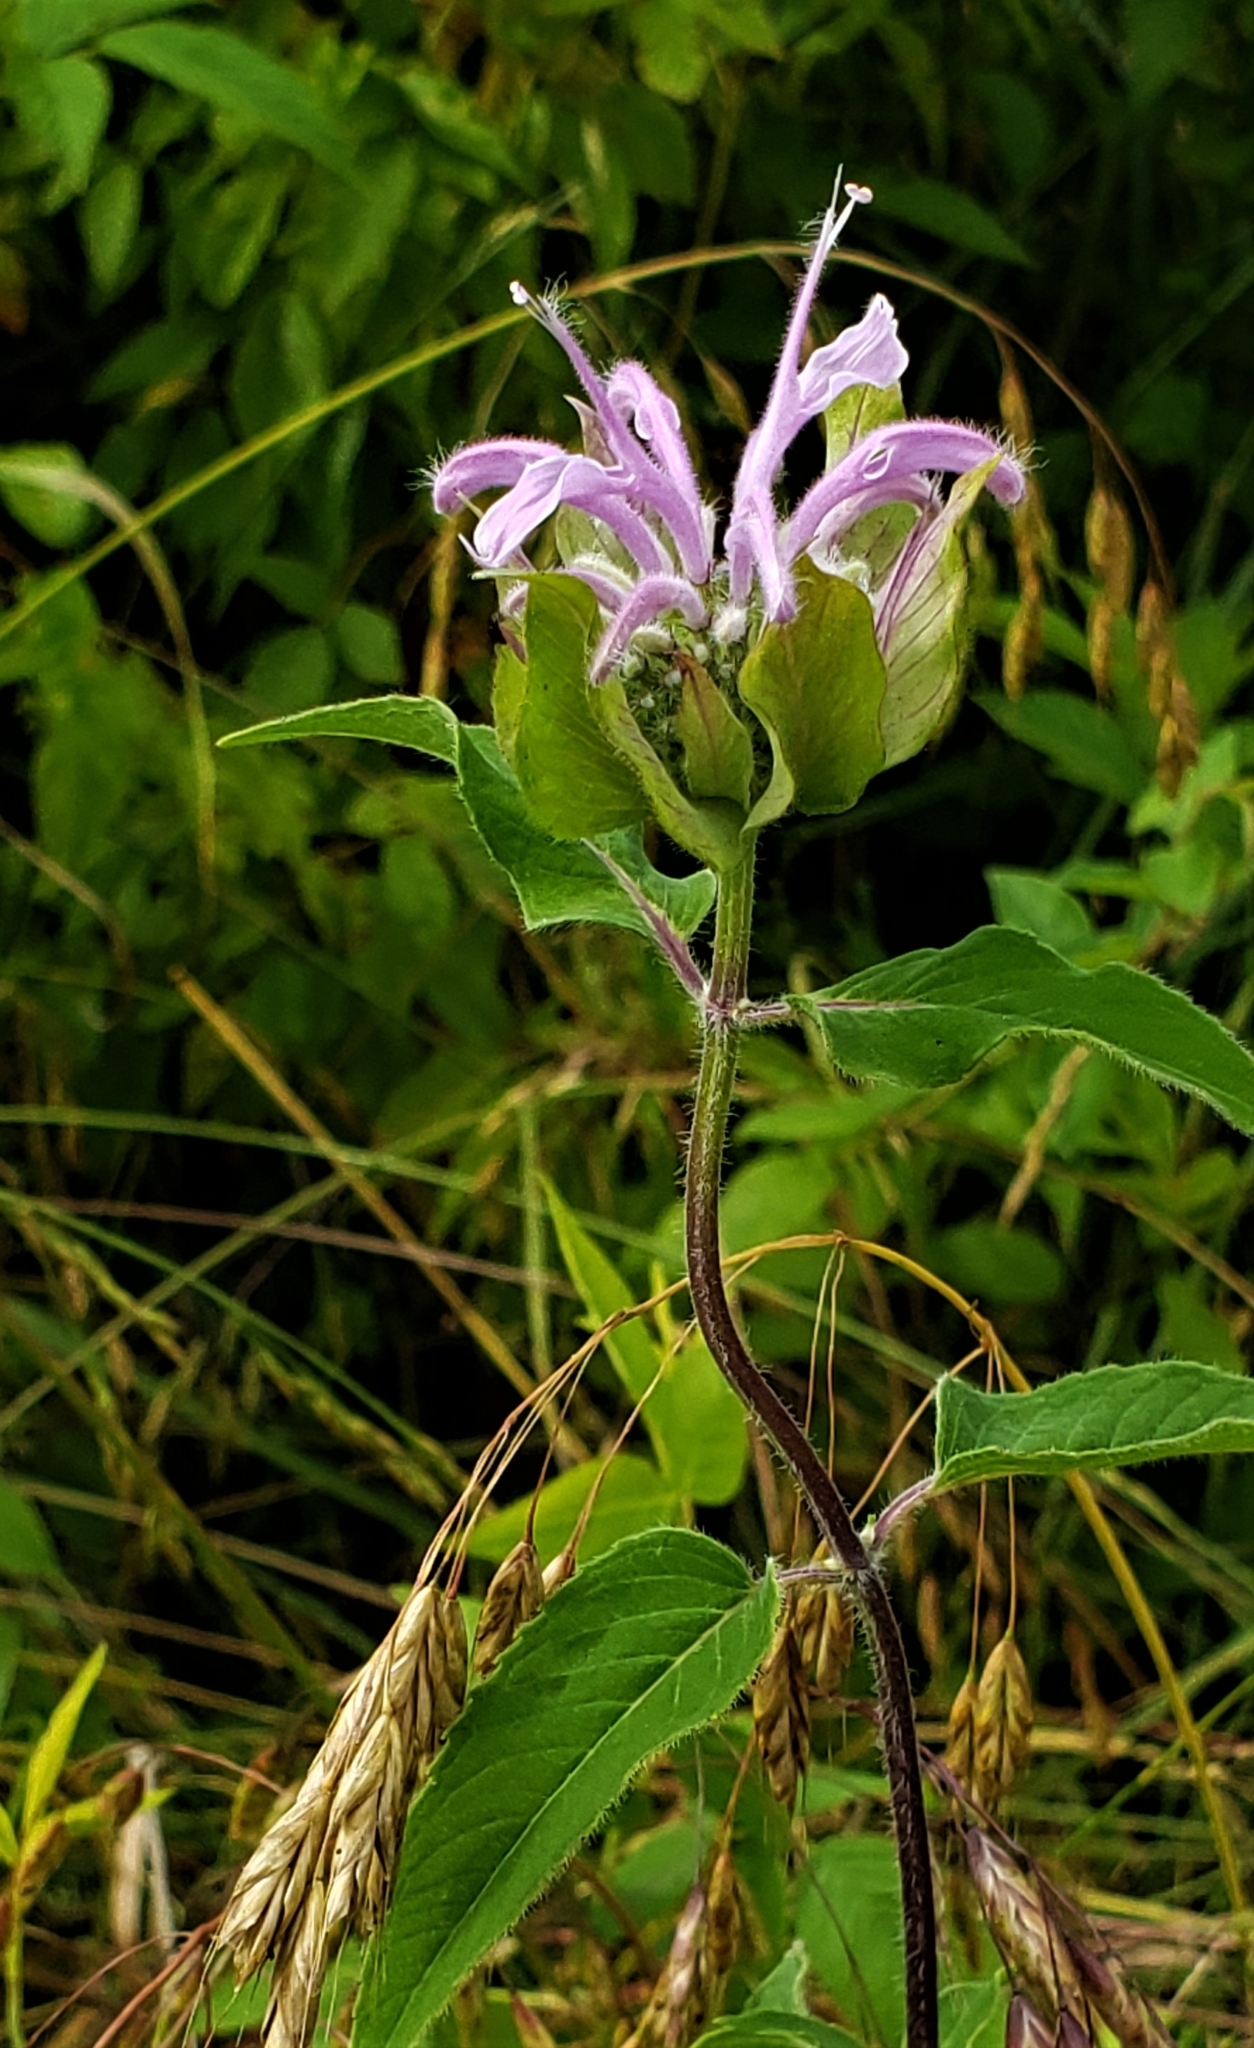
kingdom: Plantae
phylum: Tracheophyta
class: Magnoliopsida
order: Lamiales
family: Lamiaceae
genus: Monarda
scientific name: Monarda fistulosa
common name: Purple beebalm
